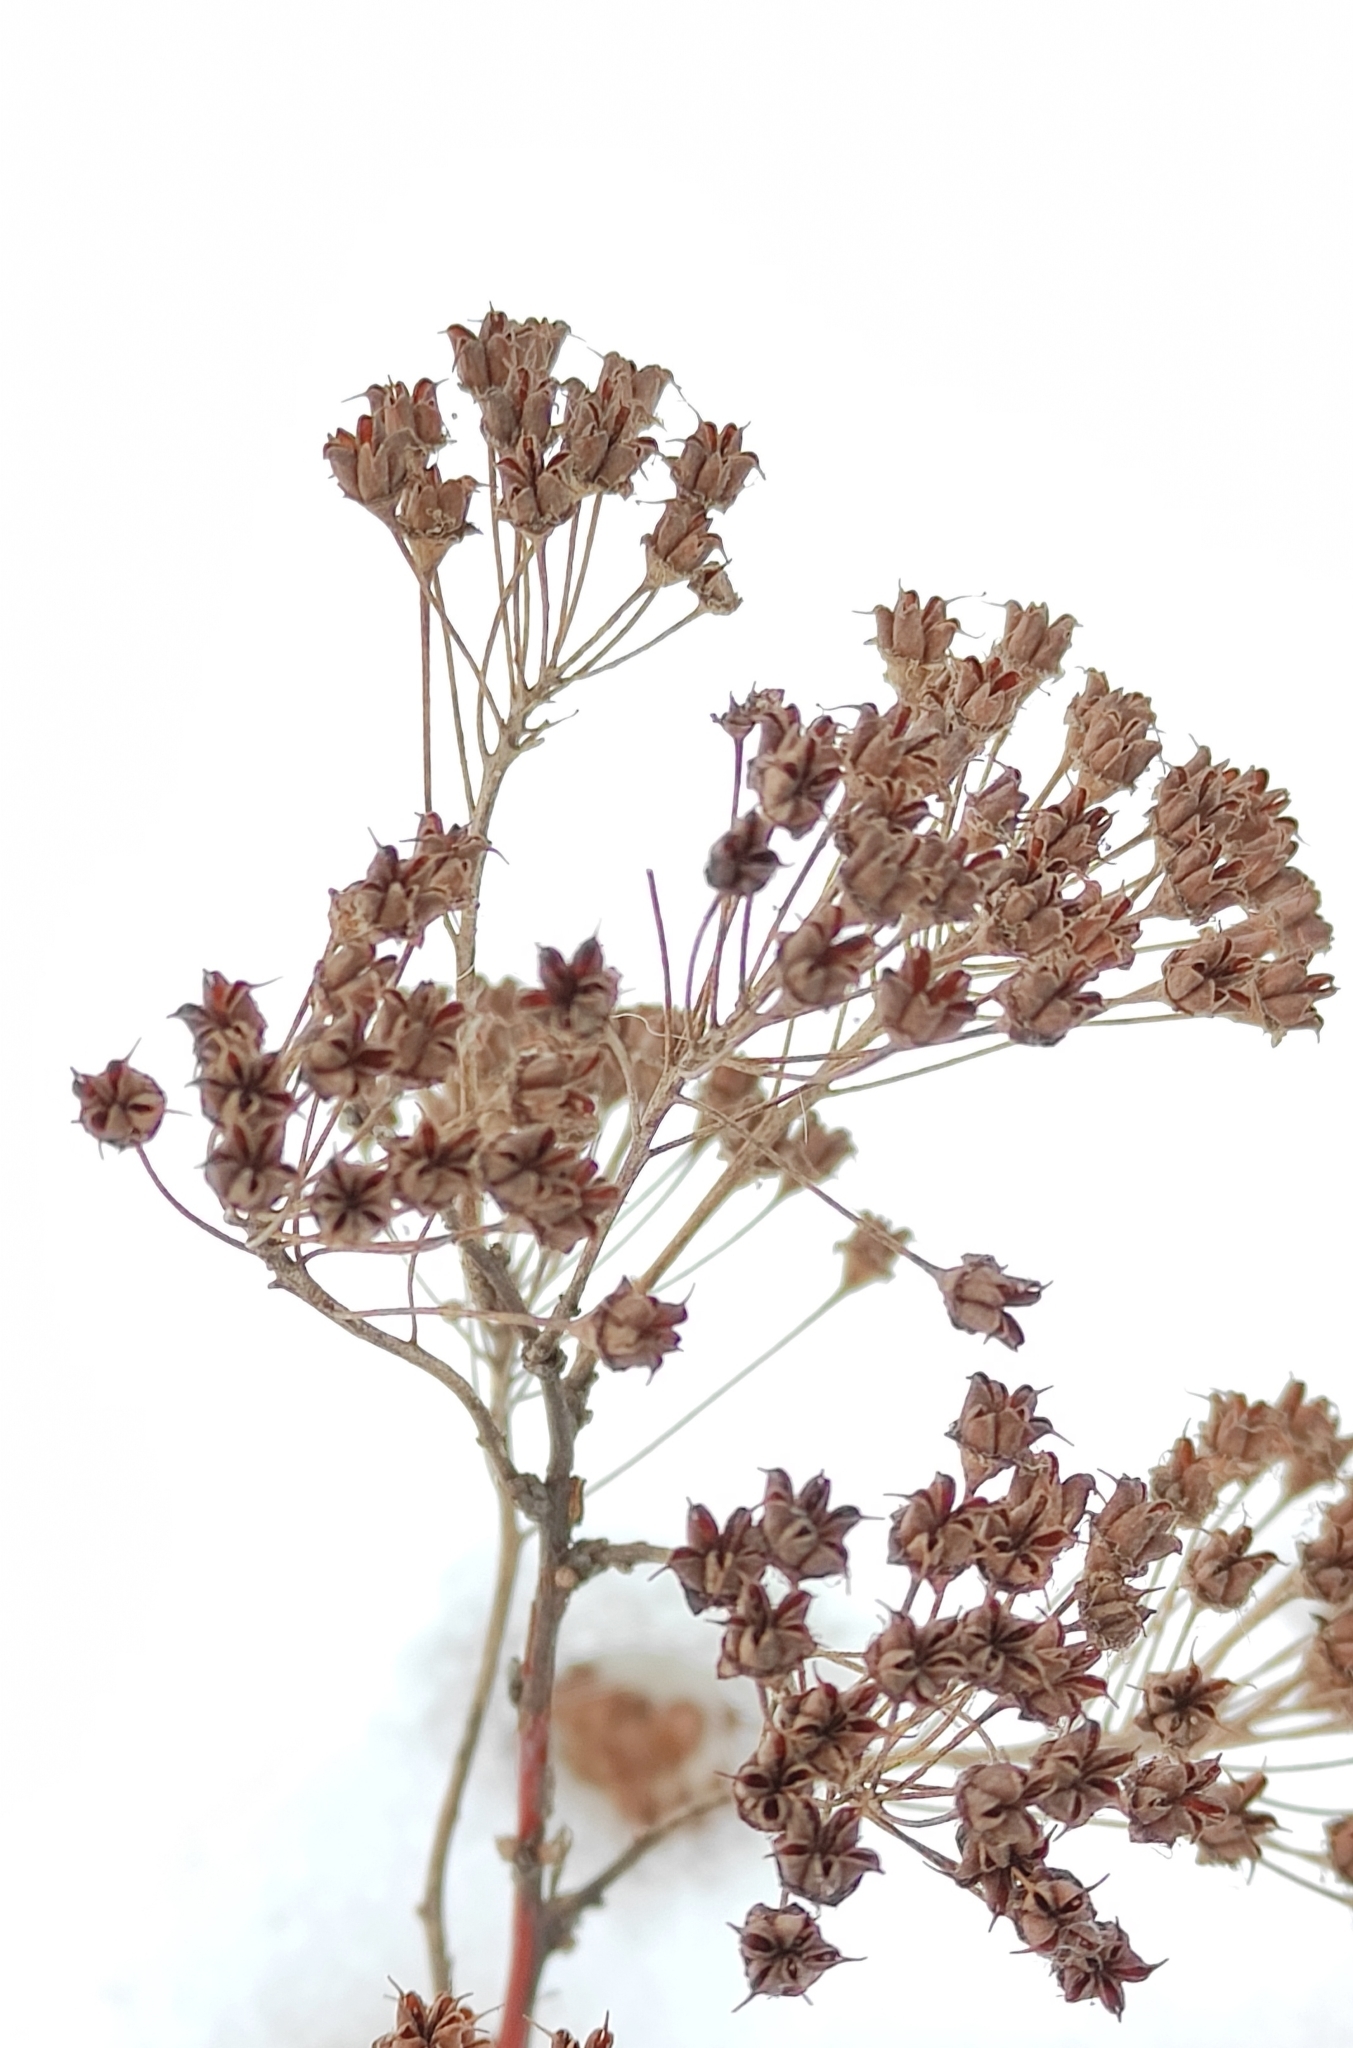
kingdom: Plantae
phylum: Tracheophyta
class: Magnoliopsida
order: Rosales
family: Rosaceae
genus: Spiraea
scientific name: Spiraea salicifolia
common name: Bridewort
